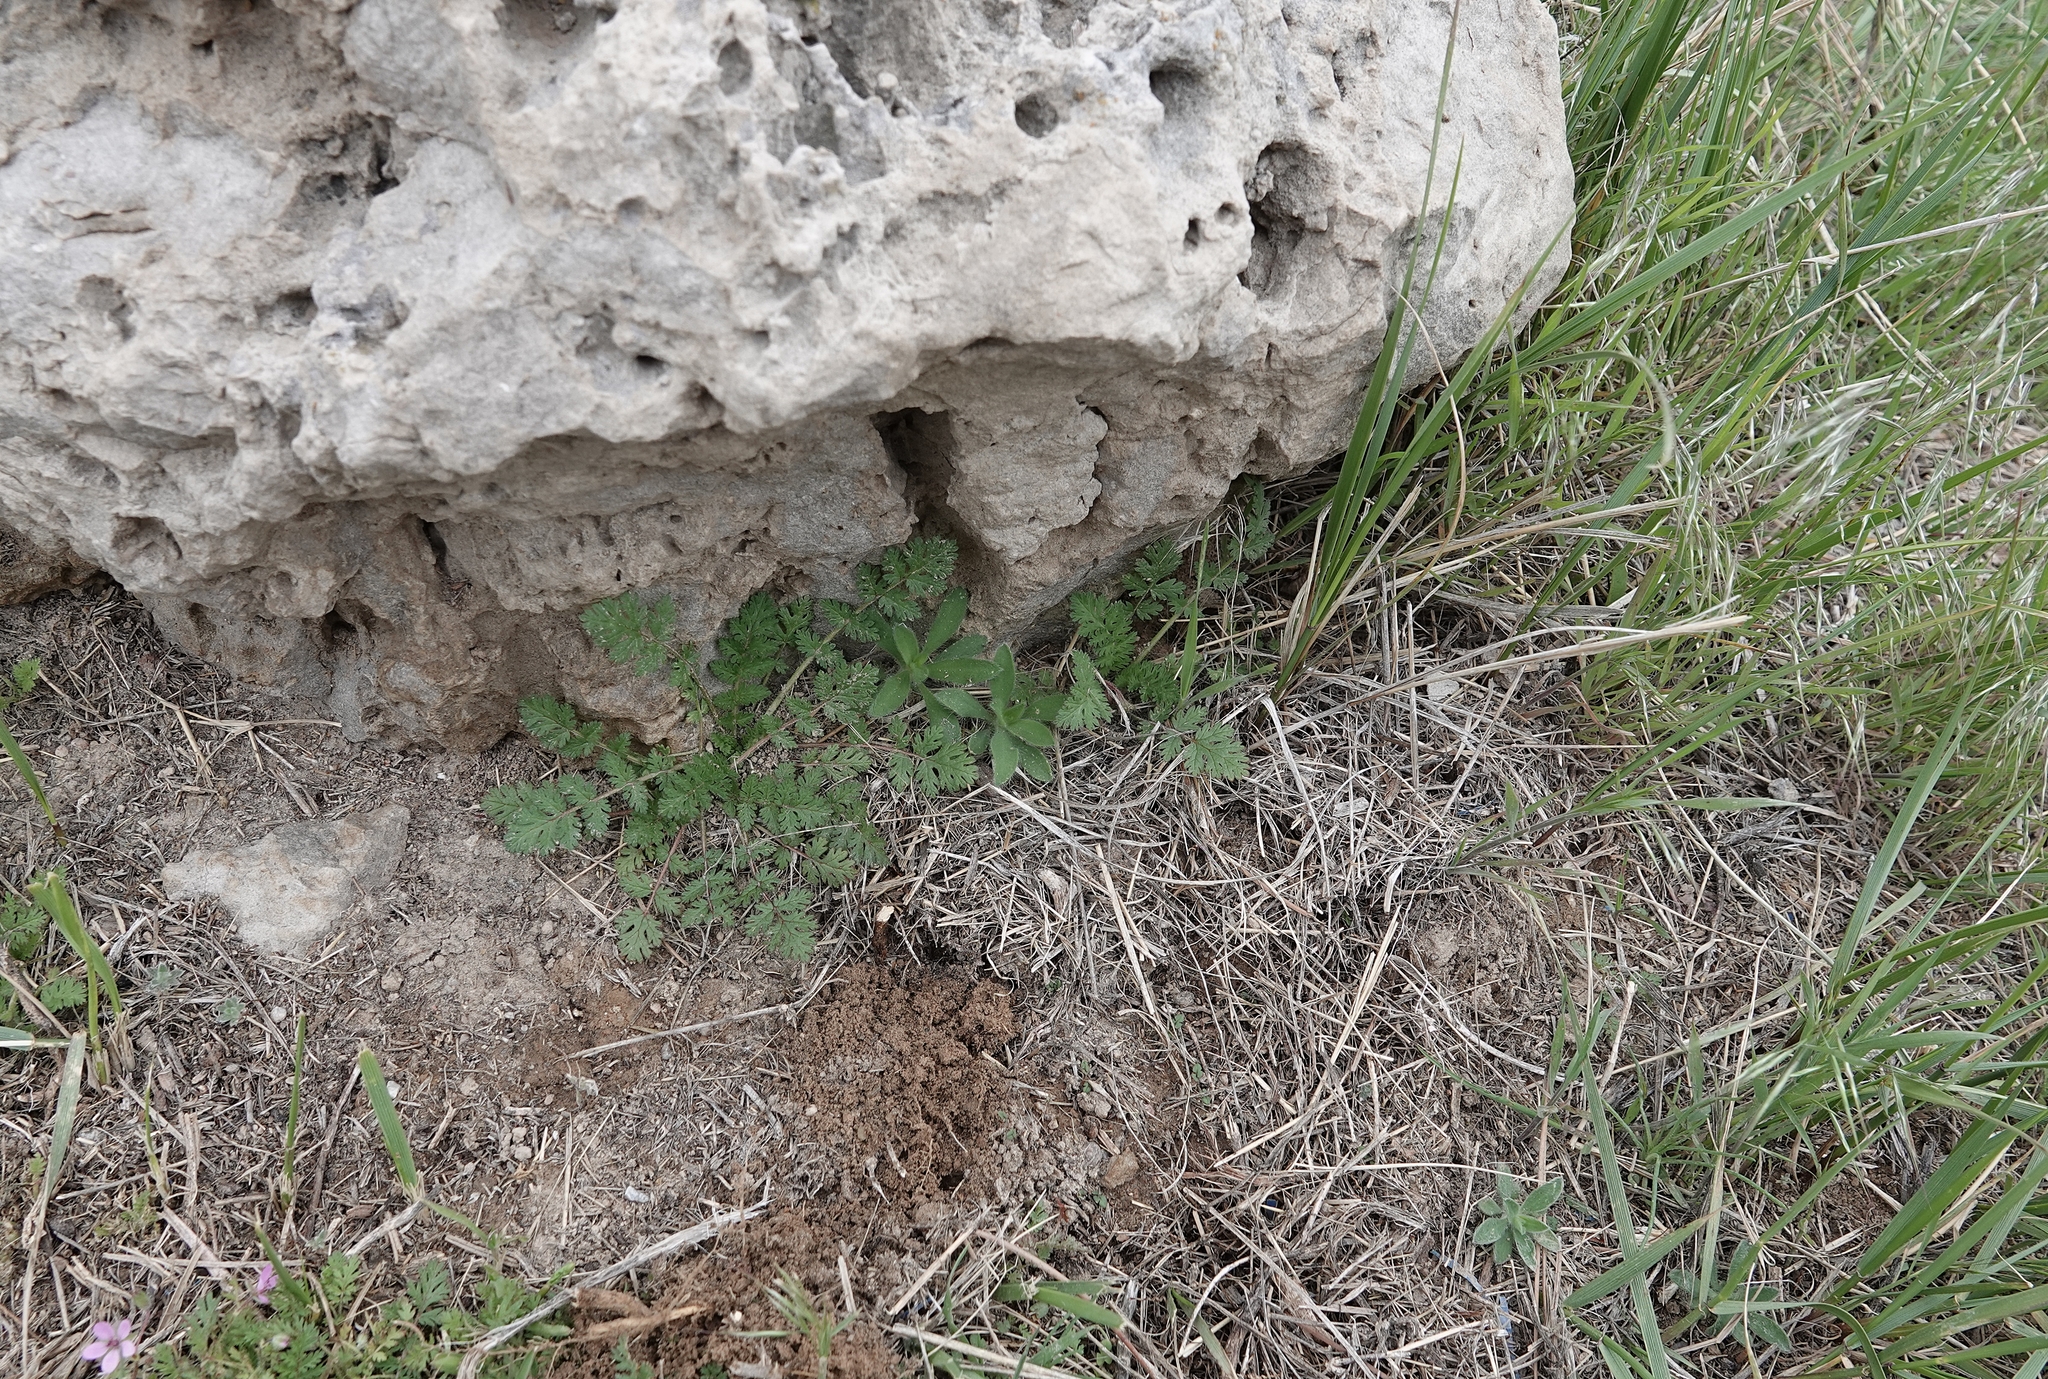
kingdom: Plantae
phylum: Tracheophyta
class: Magnoliopsida
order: Caryophyllales
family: Amaranthaceae
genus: Bassia
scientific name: Bassia scoparia
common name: Belvedere
